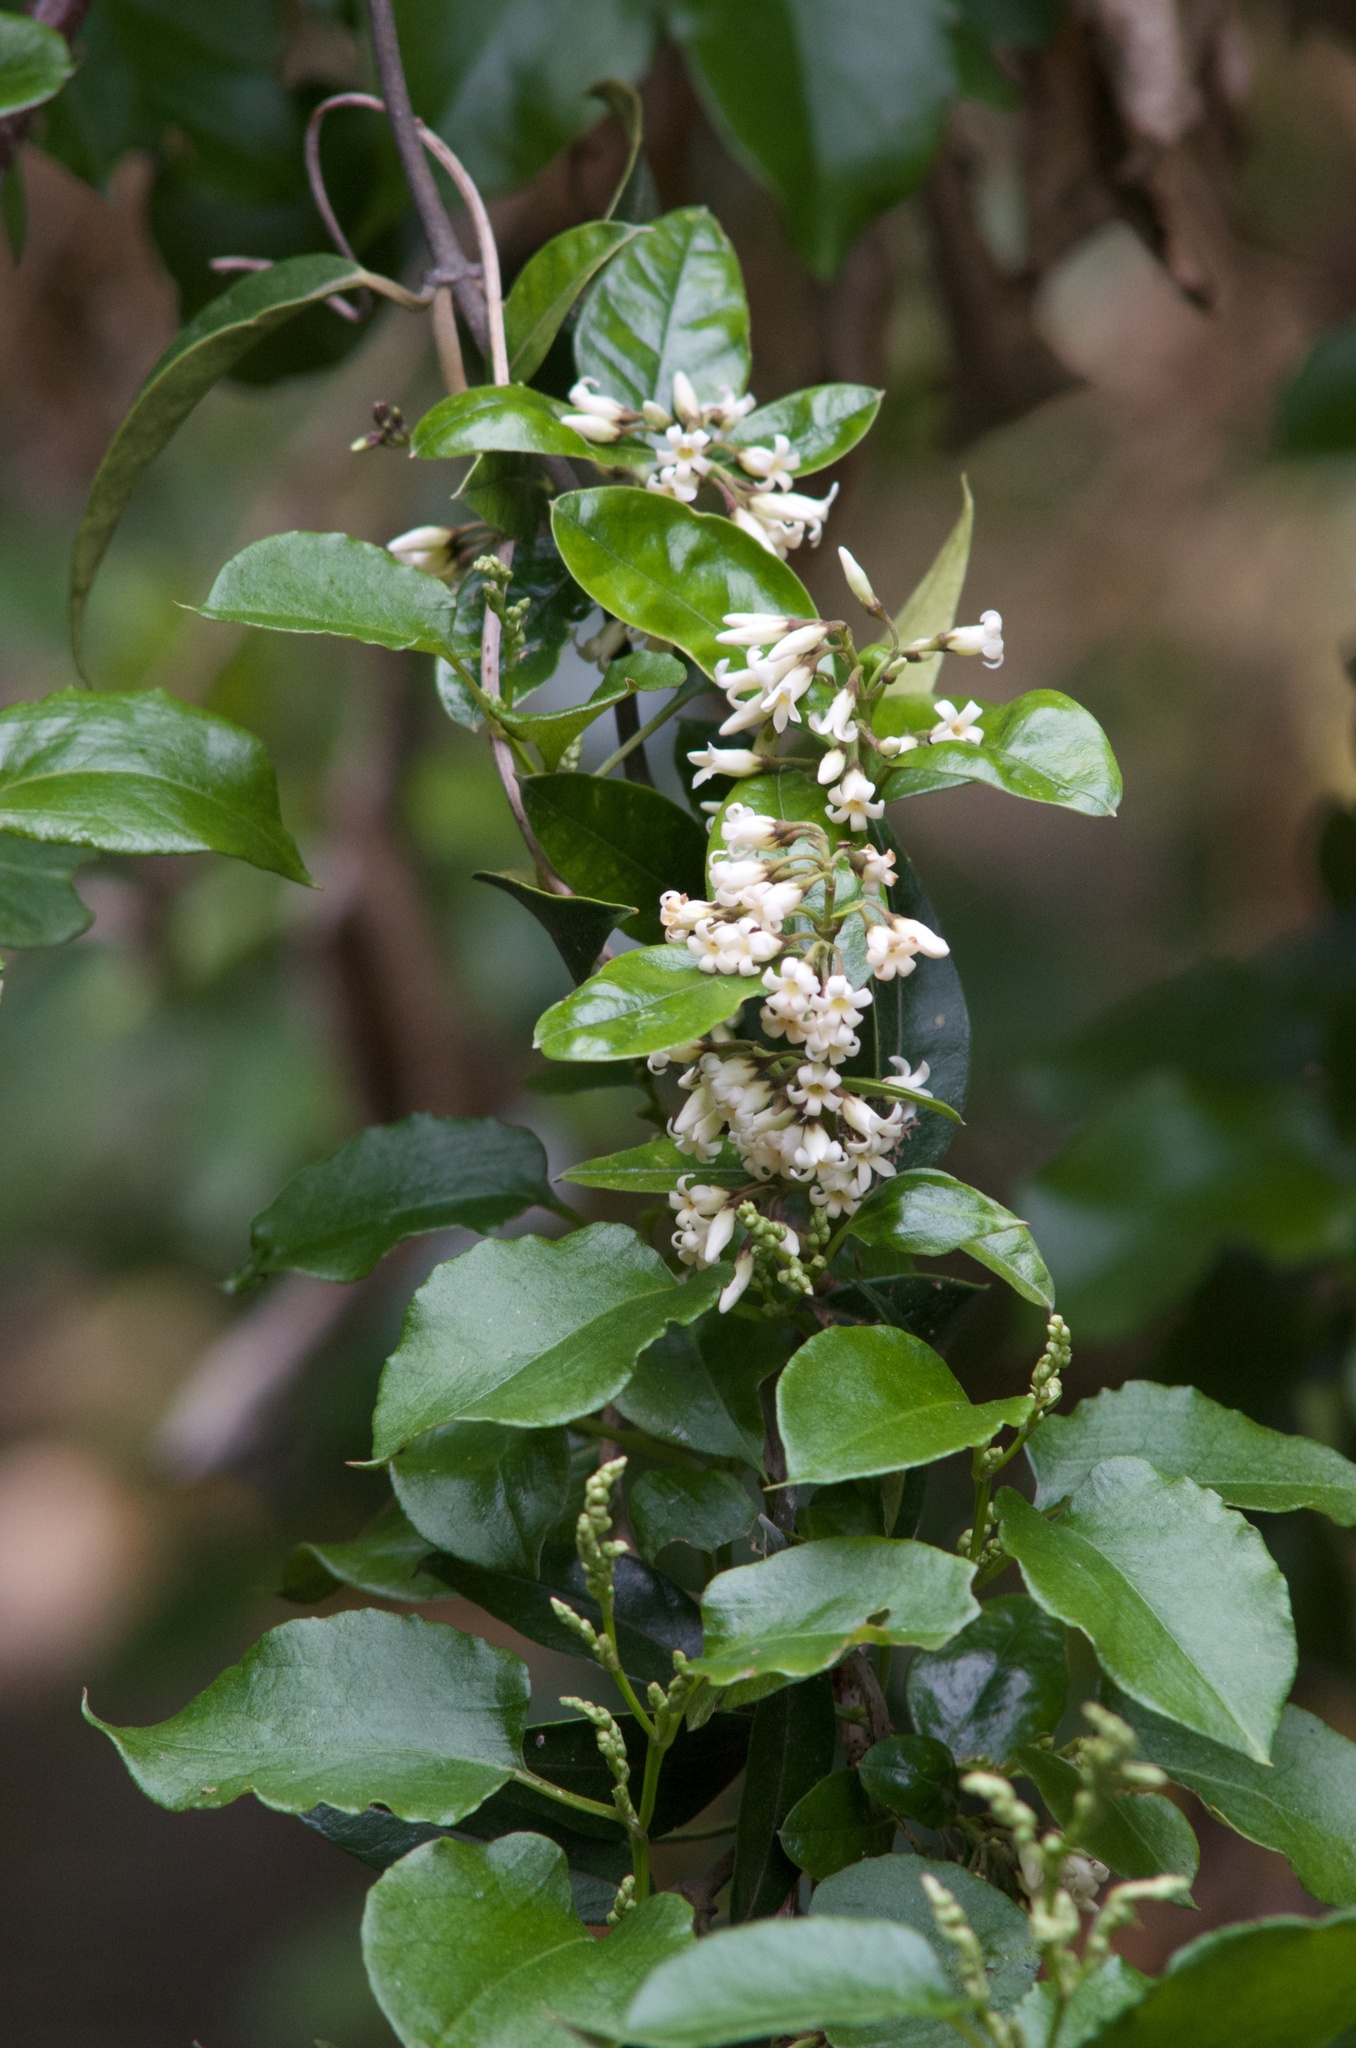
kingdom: Plantae
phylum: Tracheophyta
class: Magnoliopsida
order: Gentianales
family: Apocynaceae
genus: Parsonsia
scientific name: Parsonsia heterophylla
